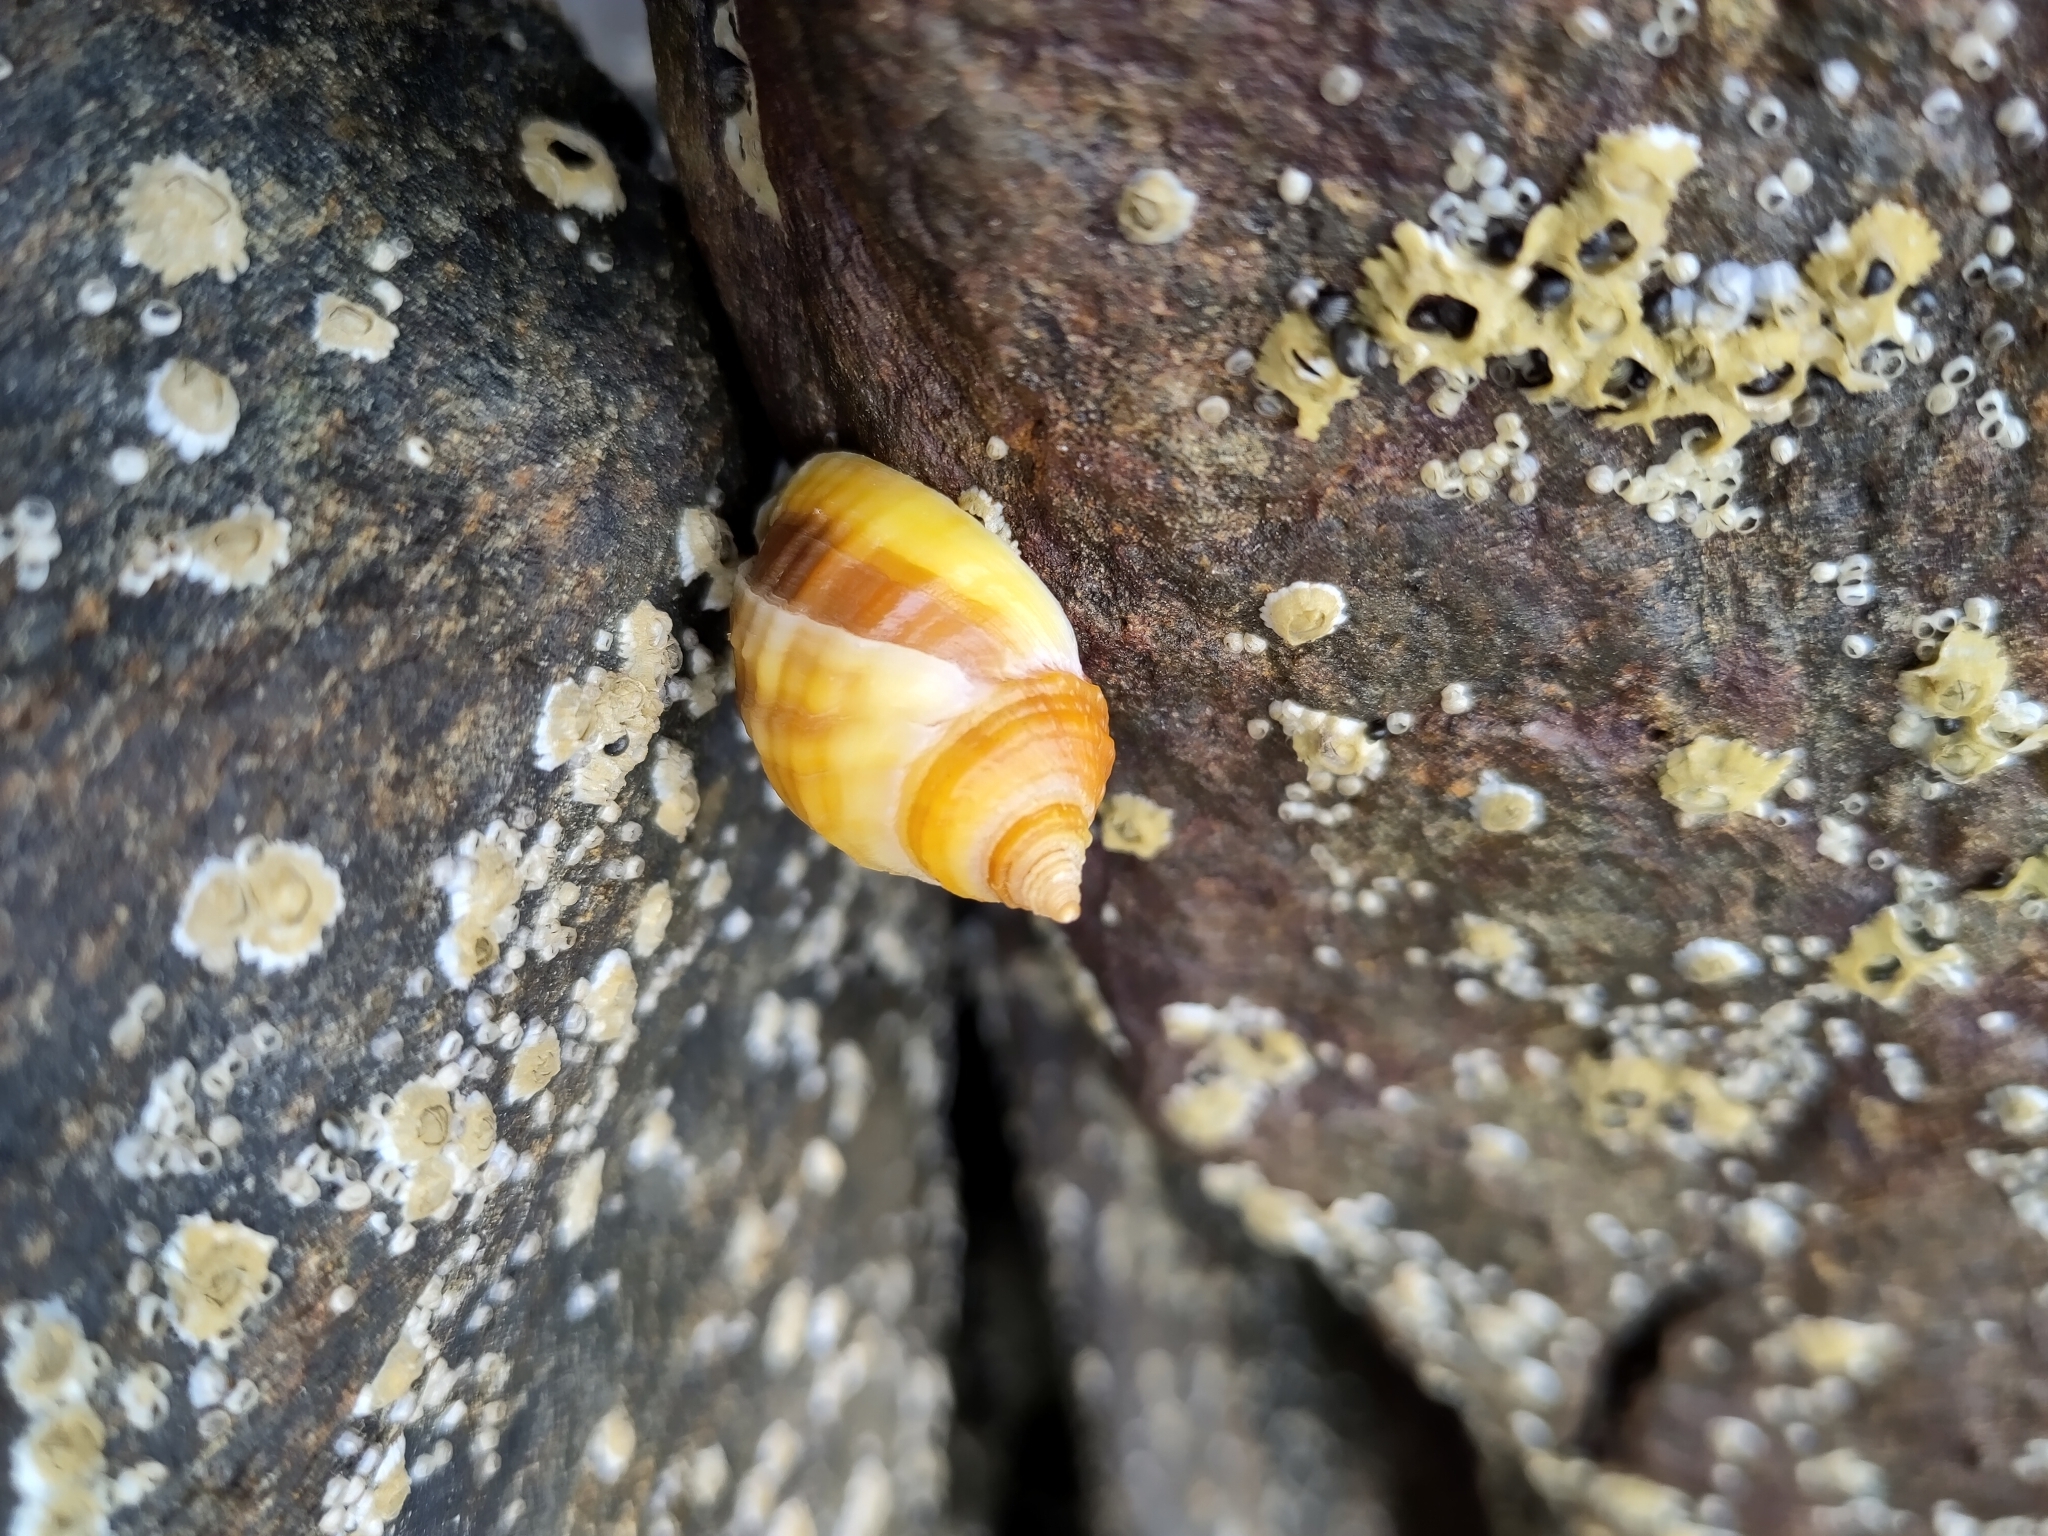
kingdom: Animalia
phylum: Mollusca
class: Gastropoda
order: Neogastropoda
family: Muricidae
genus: Nucella
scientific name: Nucella lapillus
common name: Dog whelk
